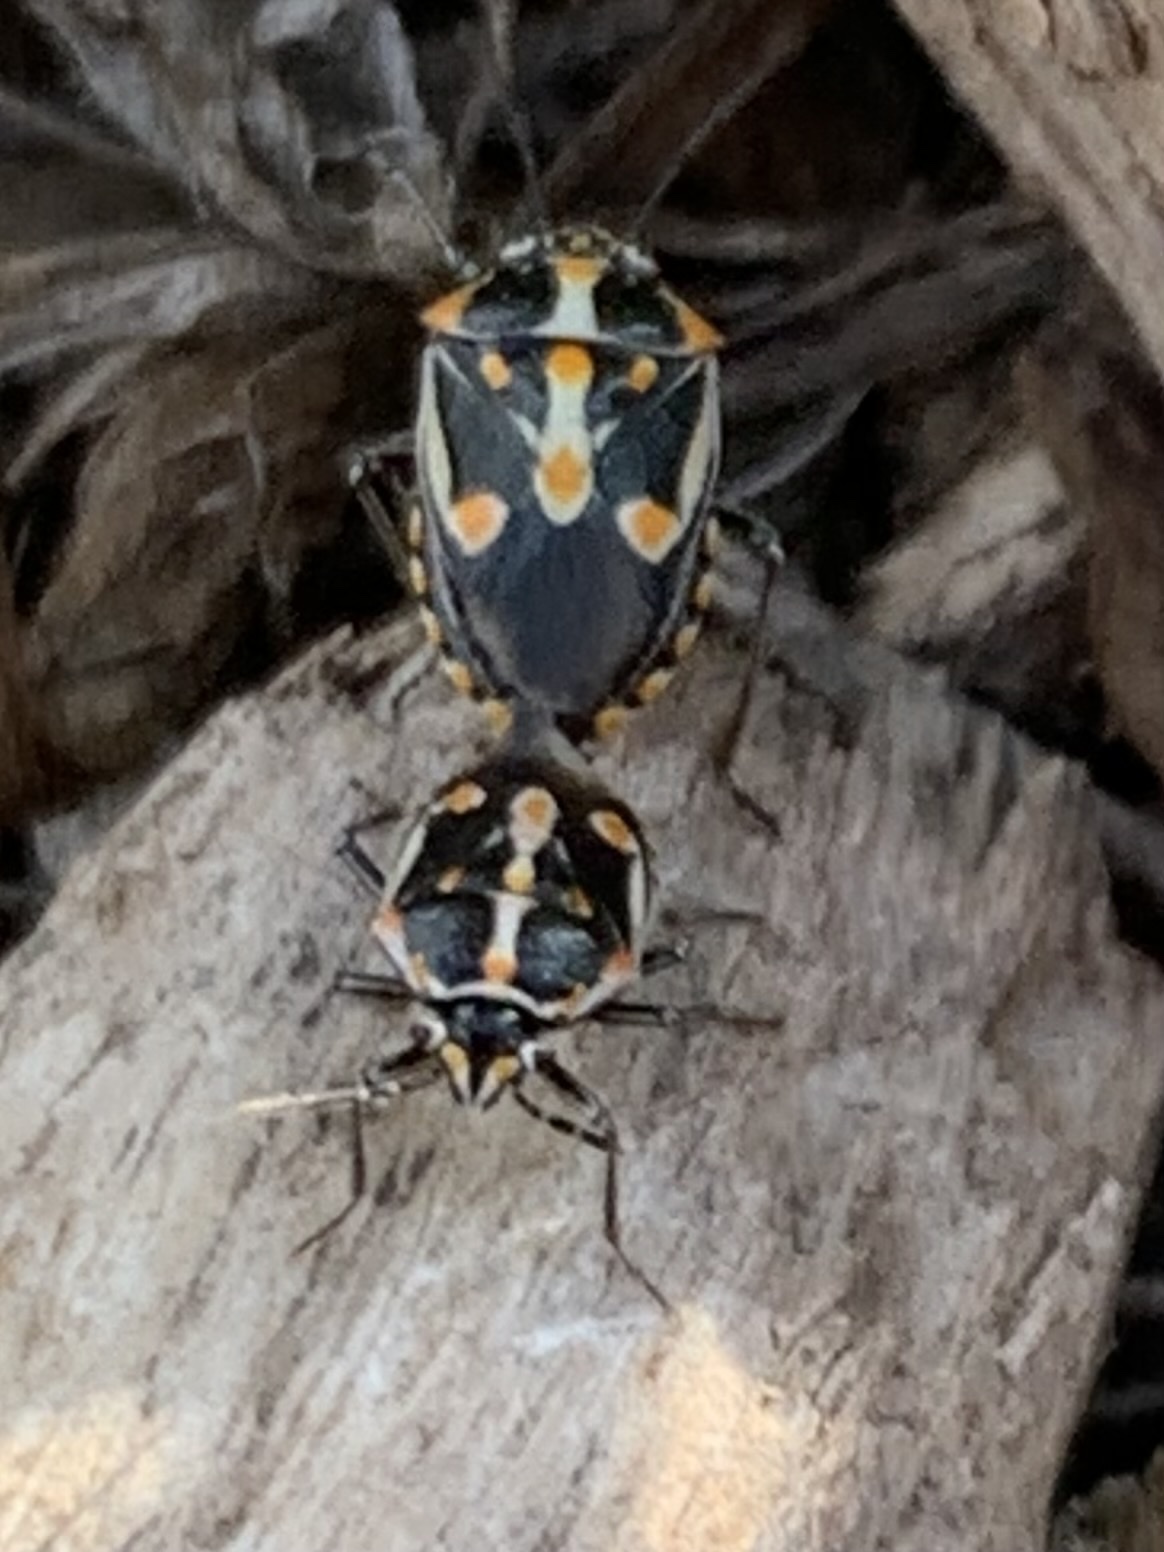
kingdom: Animalia
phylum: Arthropoda
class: Insecta
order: Hemiptera
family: Pentatomidae
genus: Bagrada
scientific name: Bagrada hilaris
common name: Bagrada bug
